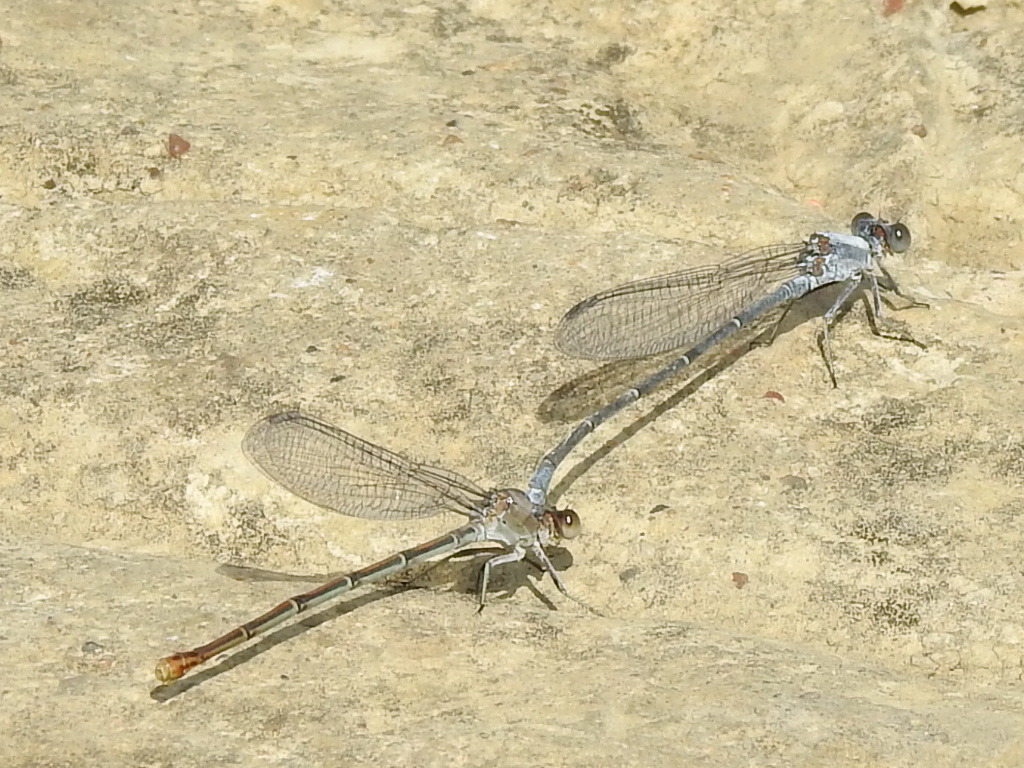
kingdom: Animalia
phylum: Arthropoda
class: Insecta
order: Odonata
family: Coenagrionidae
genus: Argia
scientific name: Argia moesta
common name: Powdered dancer
